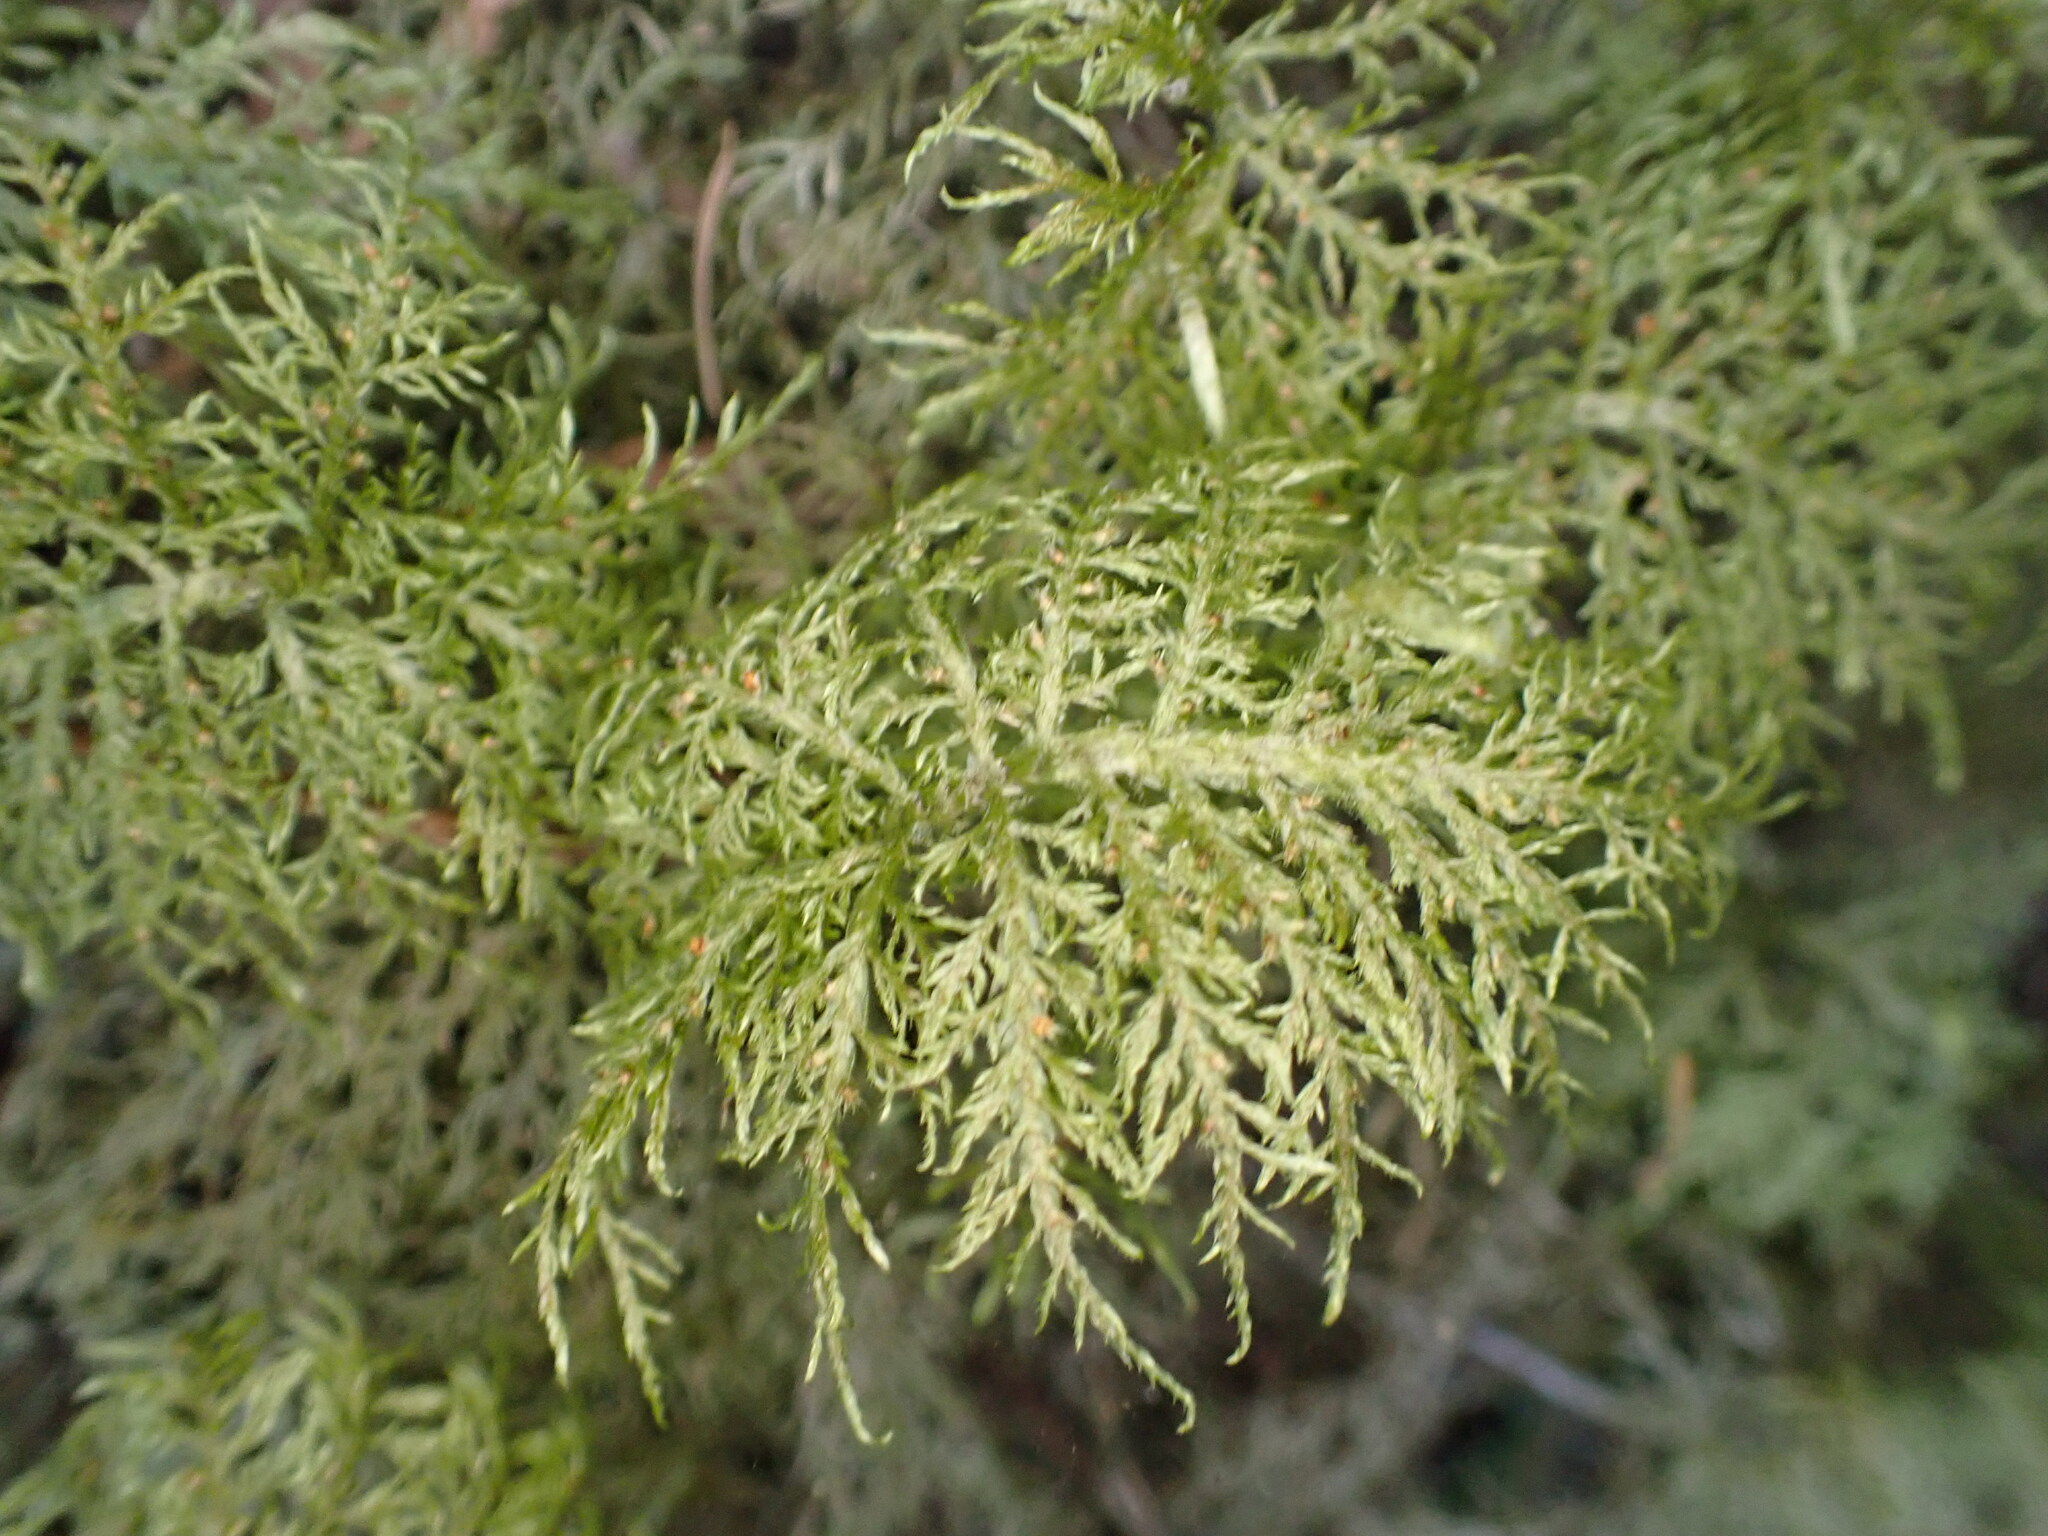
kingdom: Plantae
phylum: Bryophyta
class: Bryopsida
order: Hypnales
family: Hylocomiaceae
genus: Hylocomium
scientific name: Hylocomium splendens
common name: Stairstep moss
